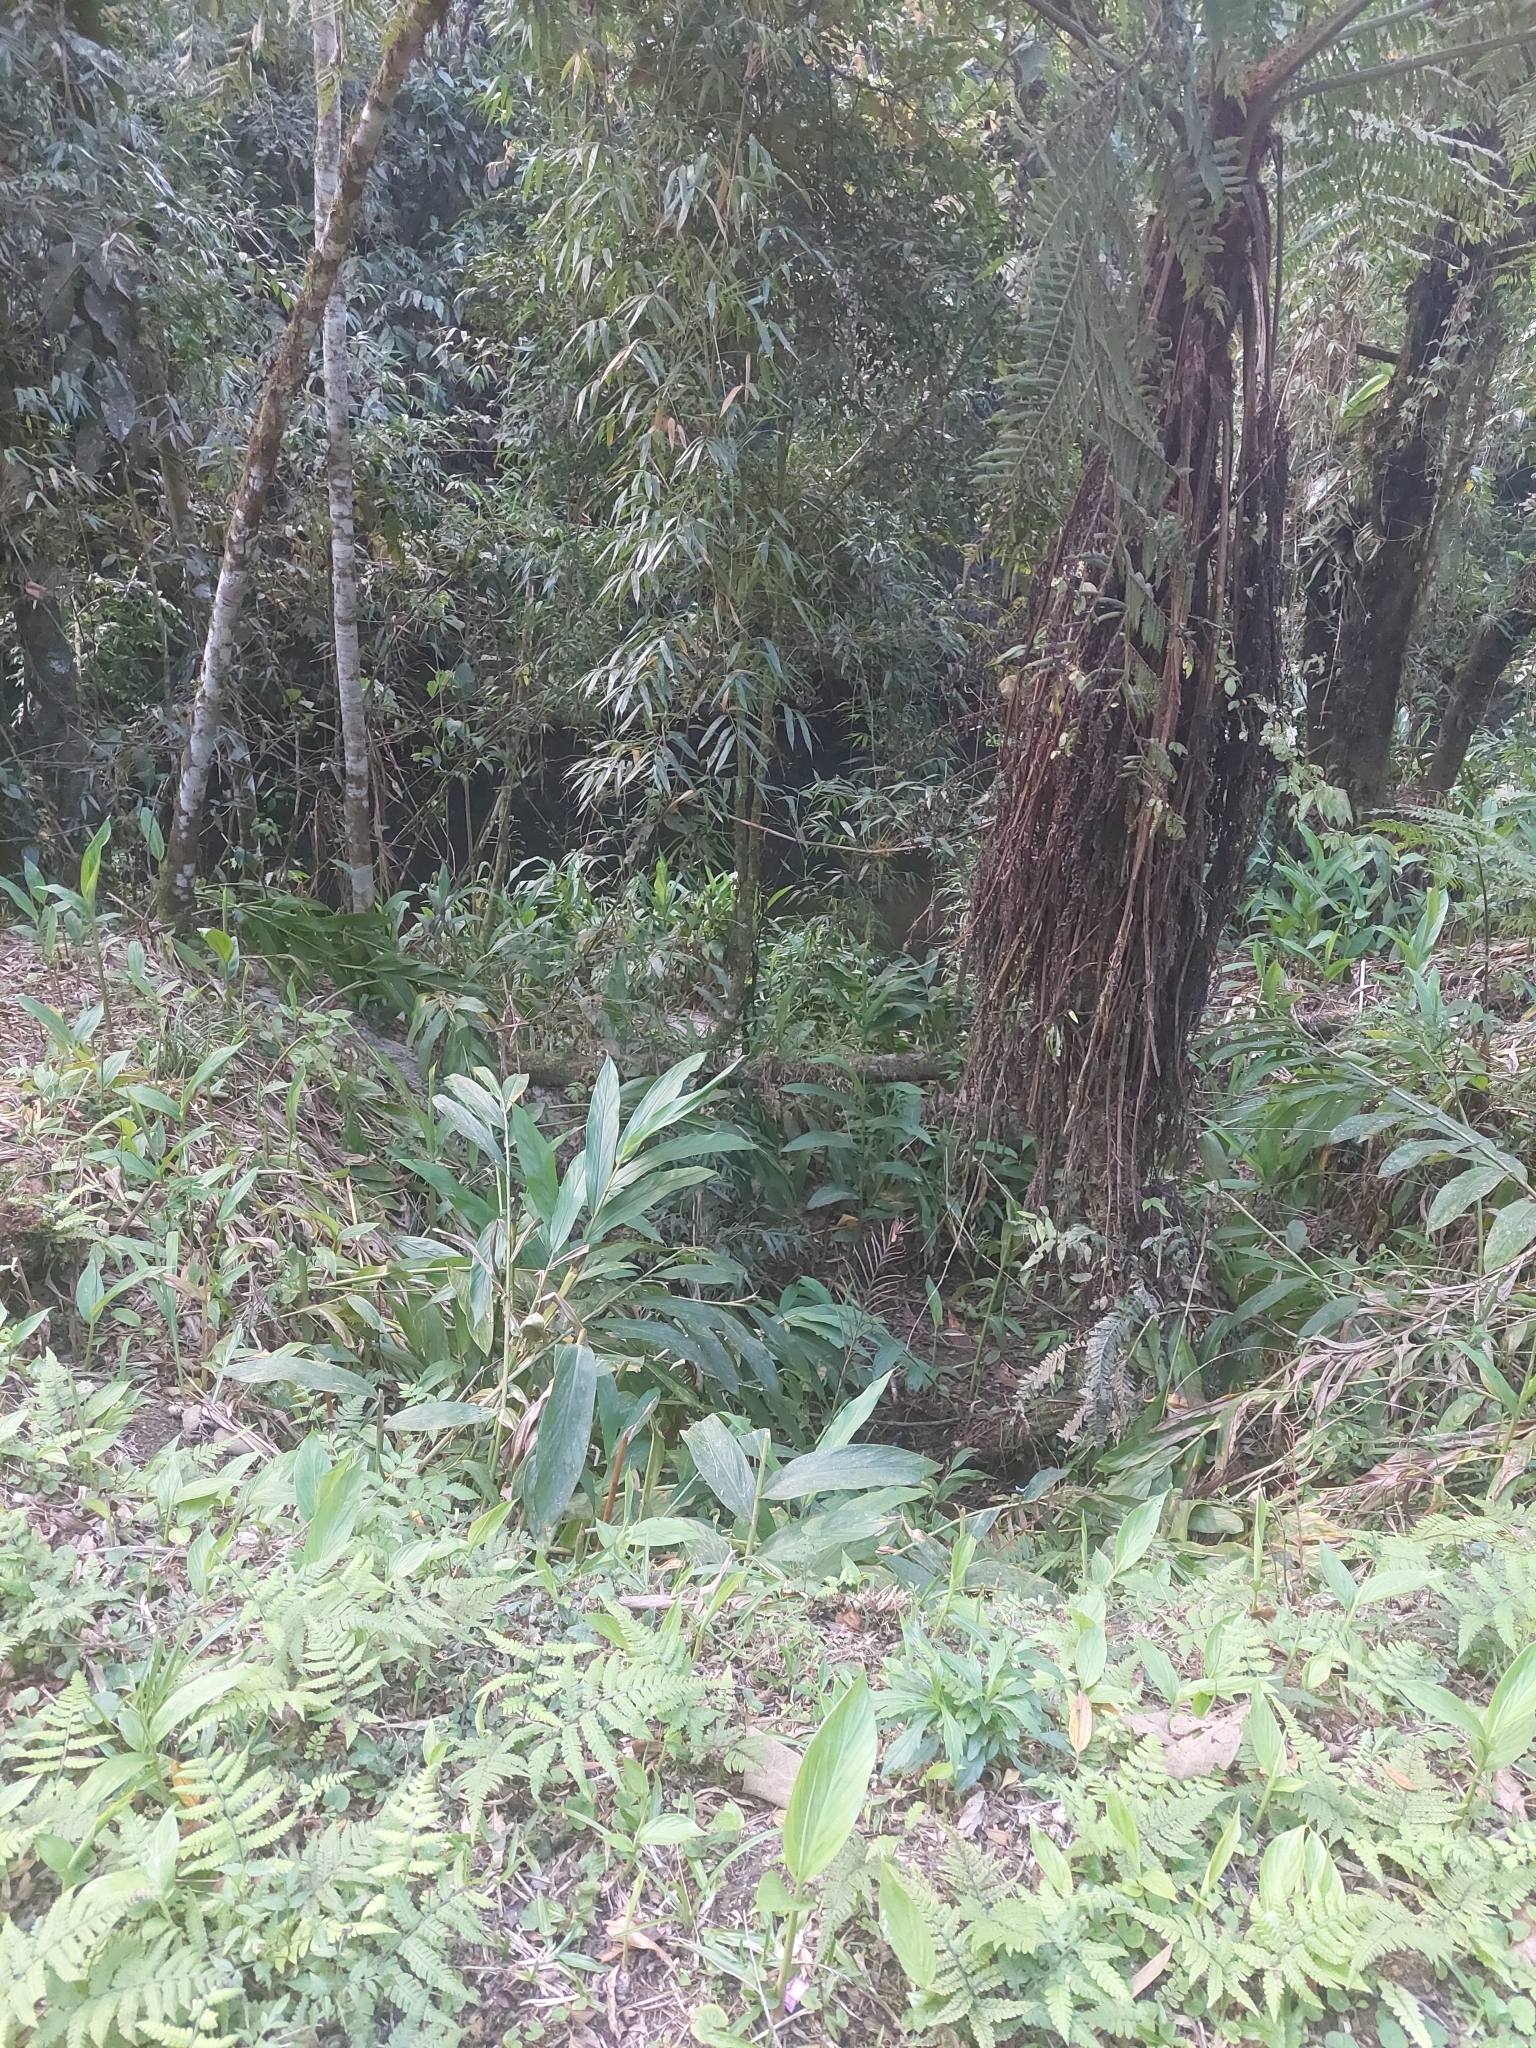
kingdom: Plantae
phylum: Tracheophyta
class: Liliopsida
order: Zingiberales
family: Zingiberaceae
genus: Hedychium
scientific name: Hedychium coronarium
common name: White garland-lily
